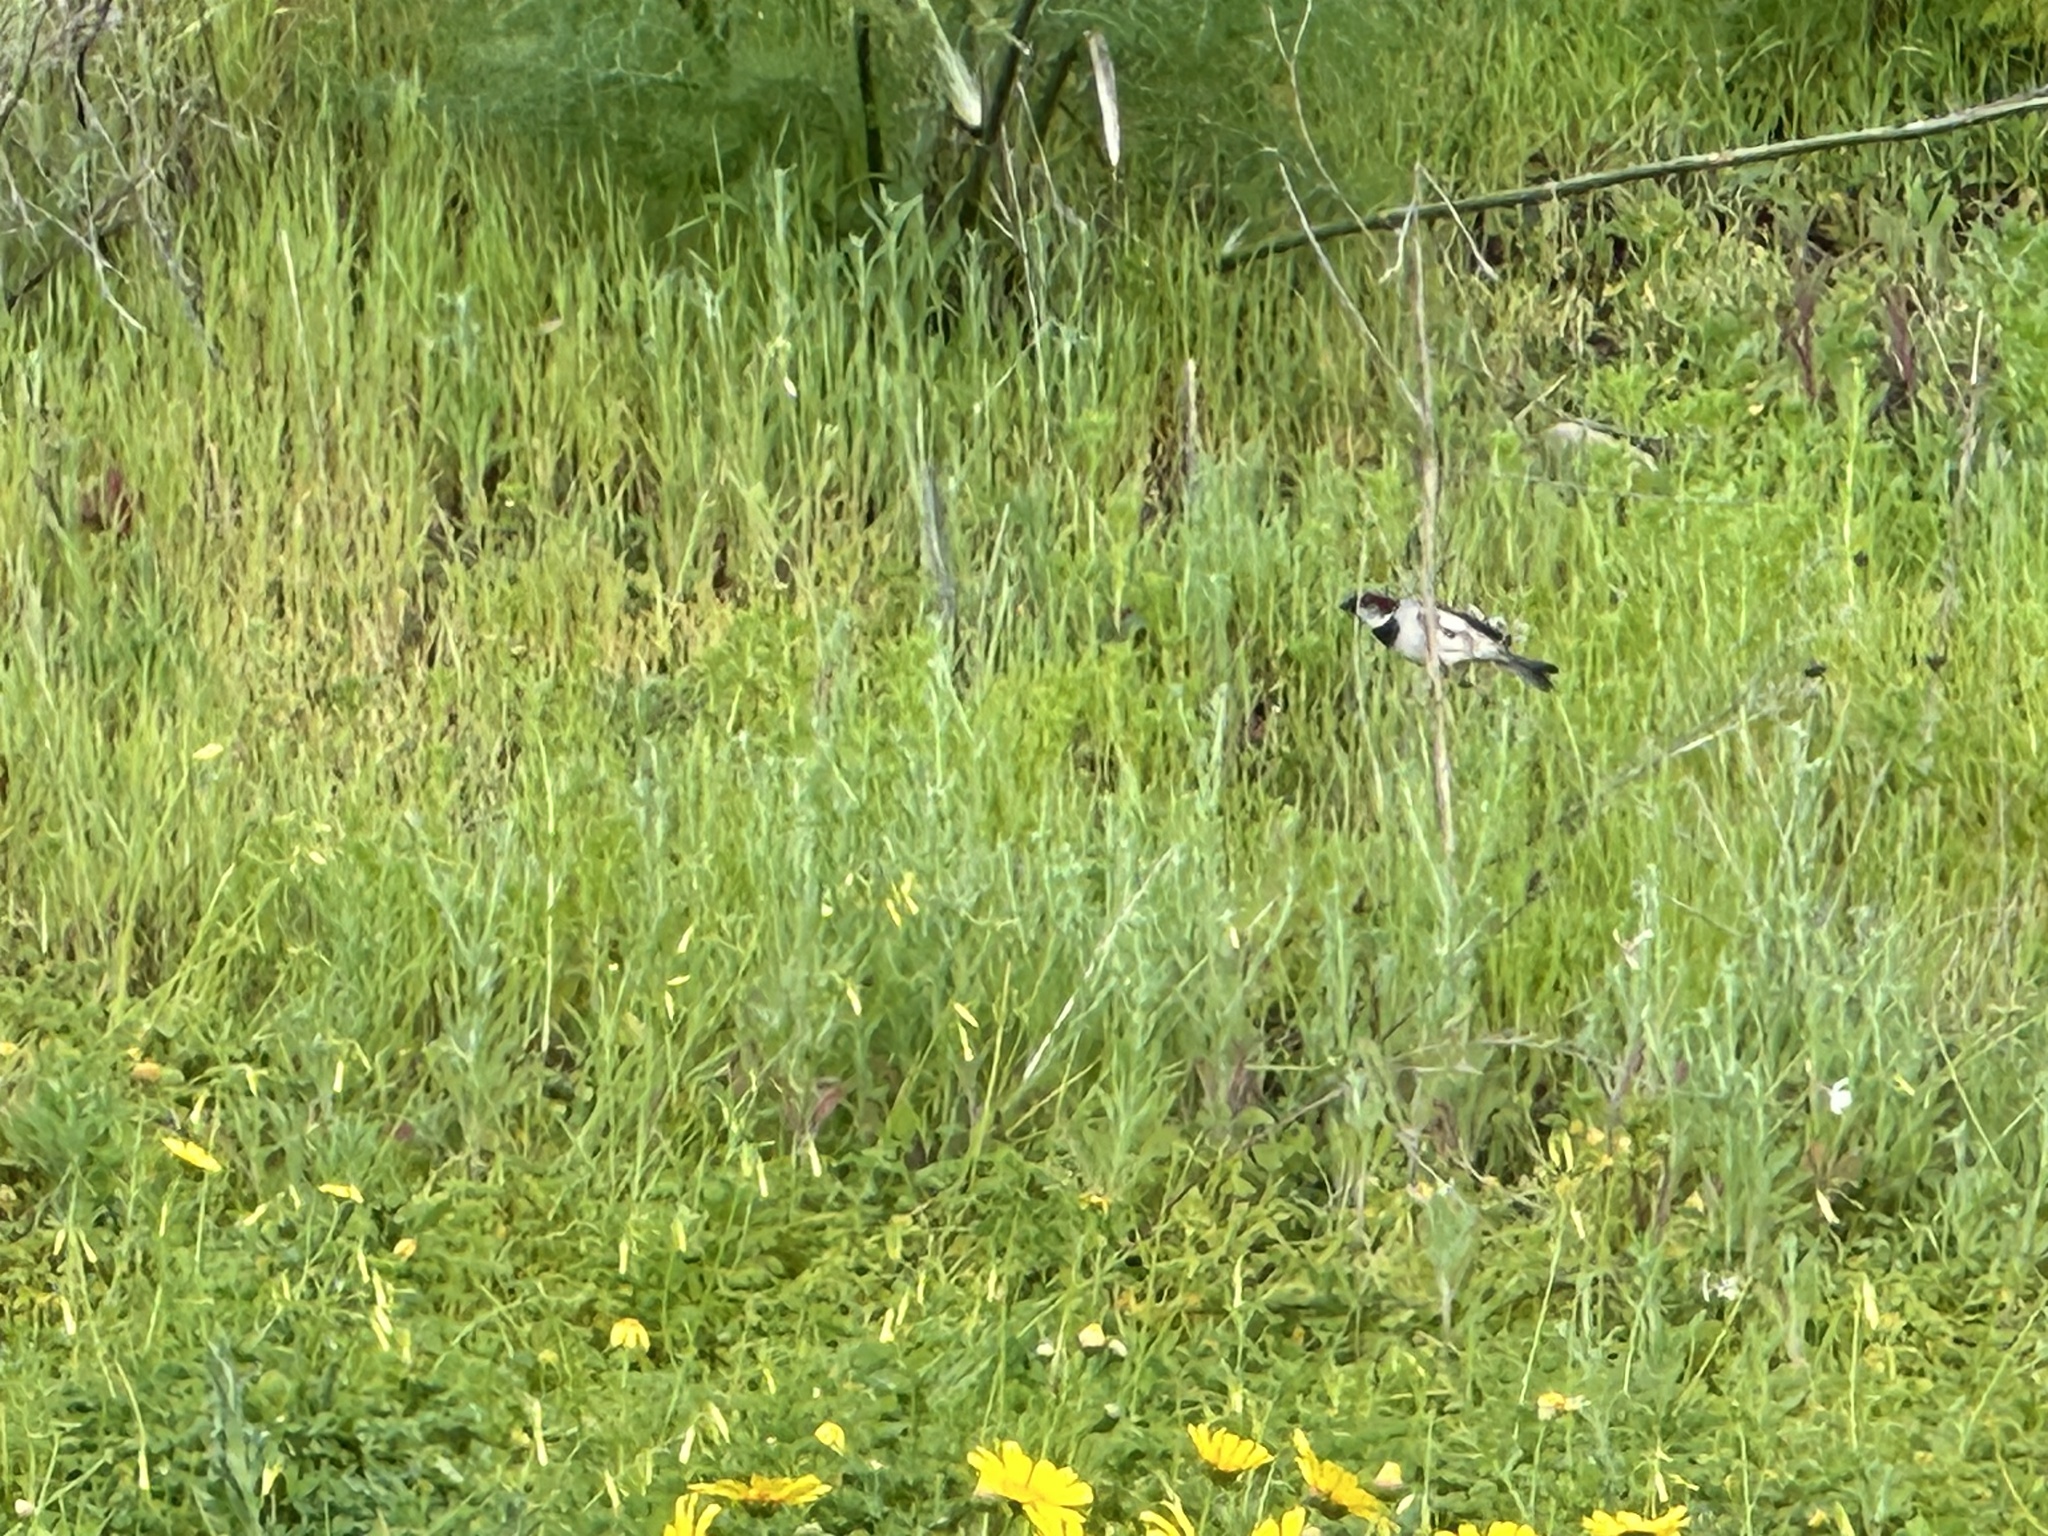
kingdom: Animalia
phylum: Chordata
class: Aves
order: Passeriformes
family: Passeridae
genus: Passer
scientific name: Passer domesticus
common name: House sparrow
